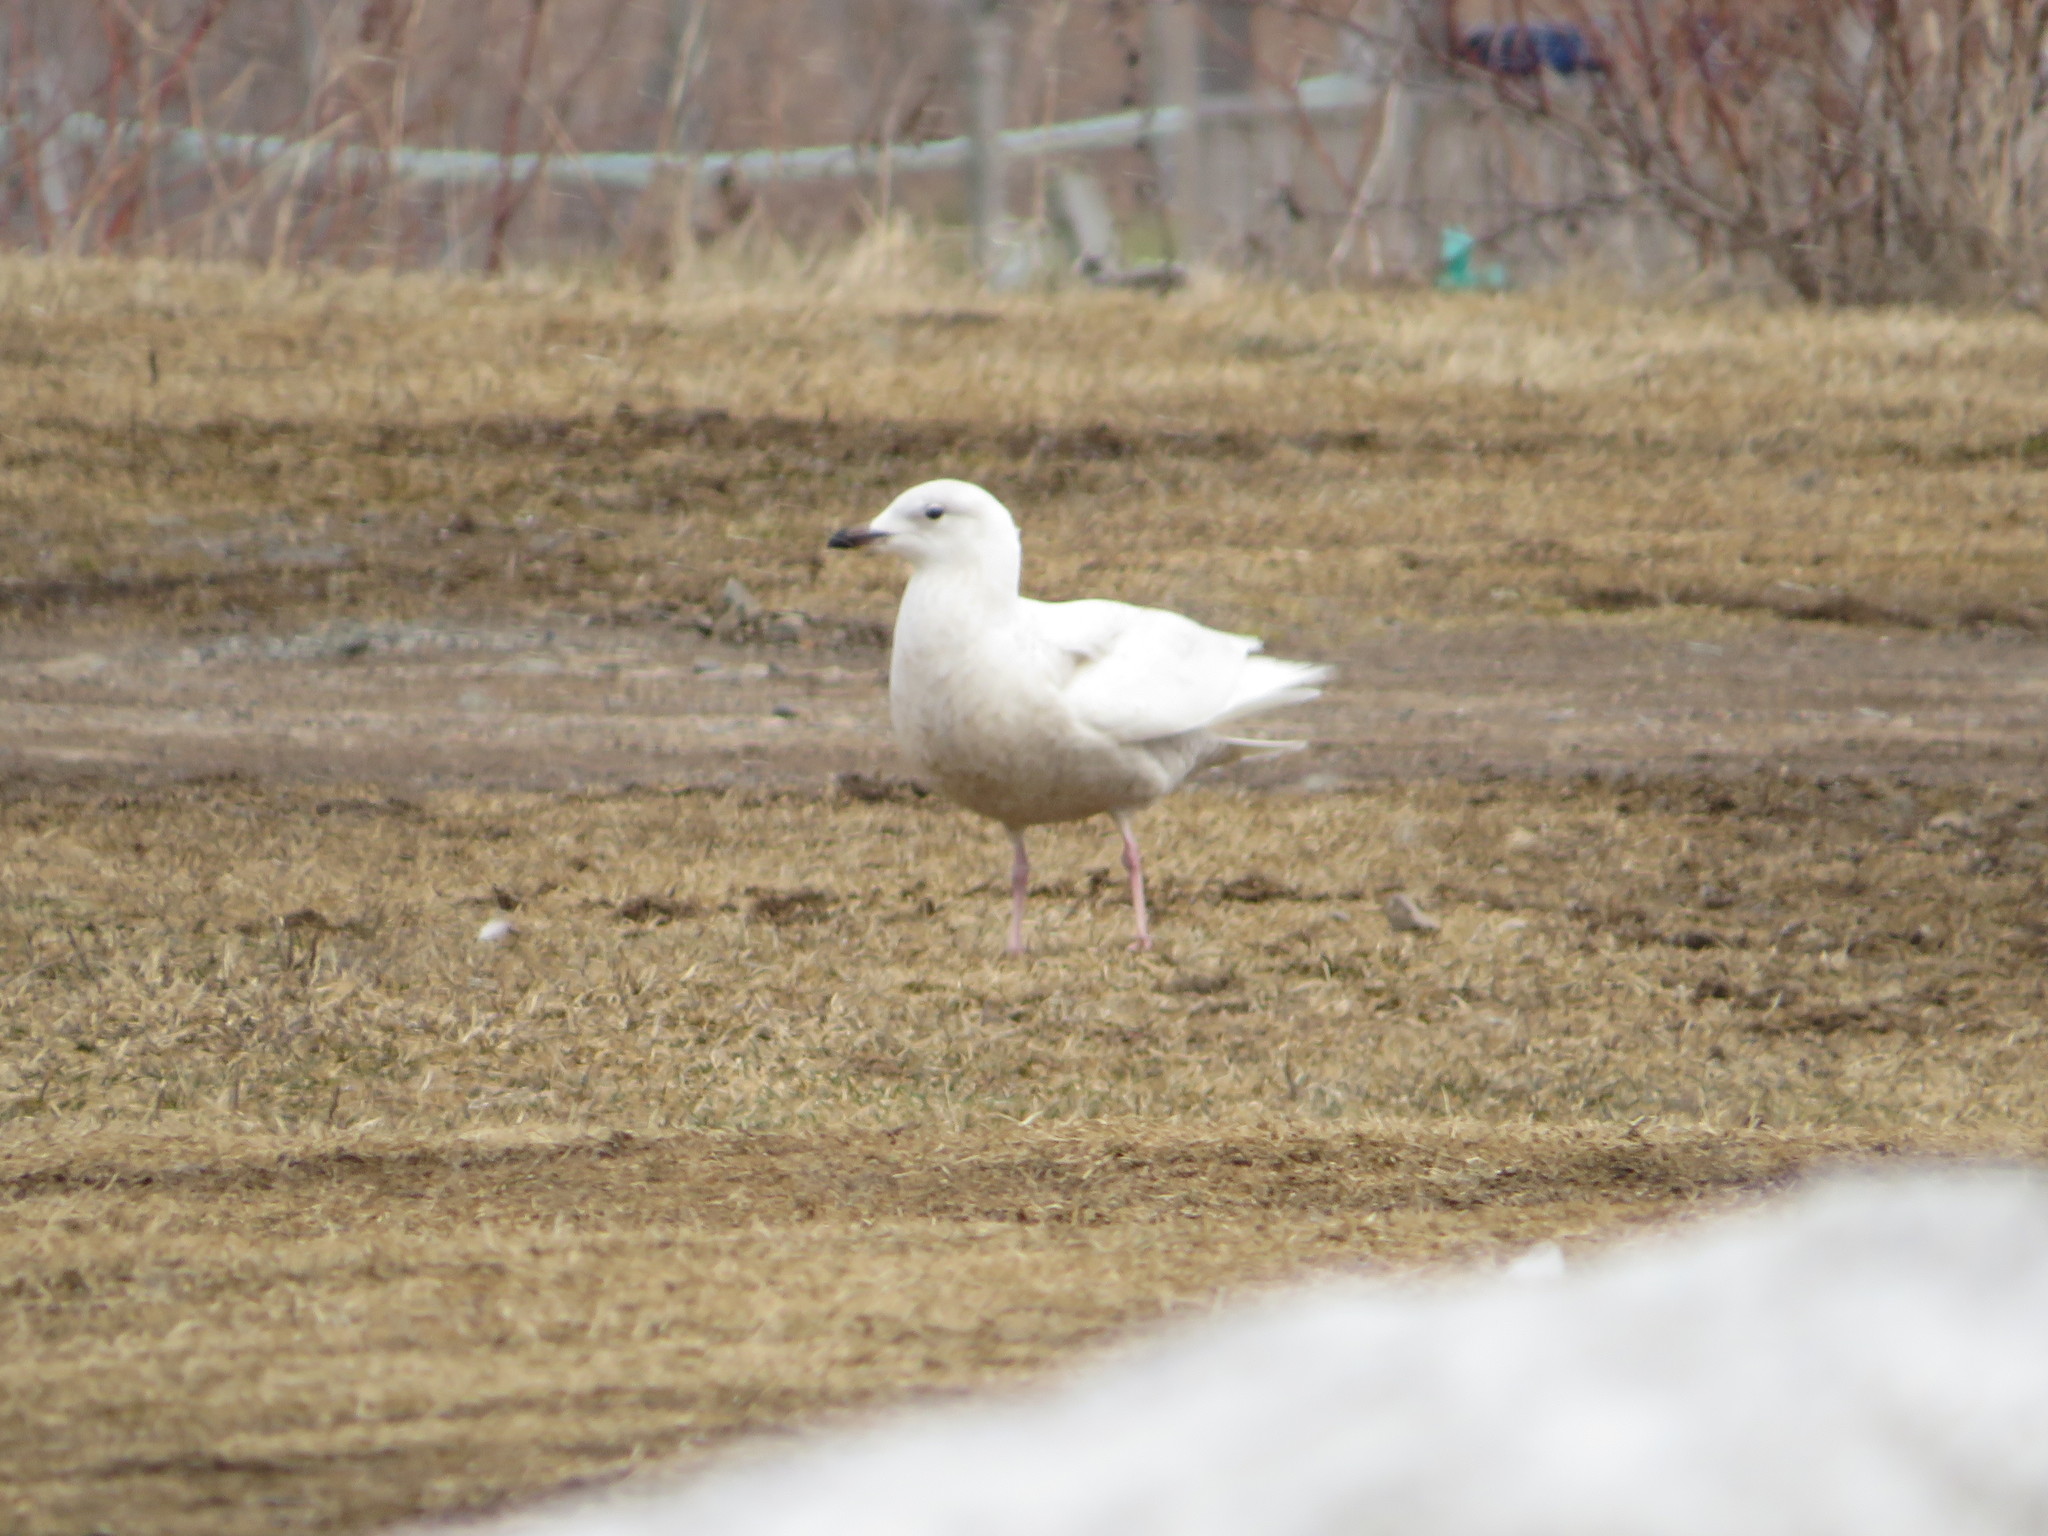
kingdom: Animalia
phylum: Chordata
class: Aves
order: Charadriiformes
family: Laridae
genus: Larus
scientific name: Larus glaucoides
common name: Iceland gull
